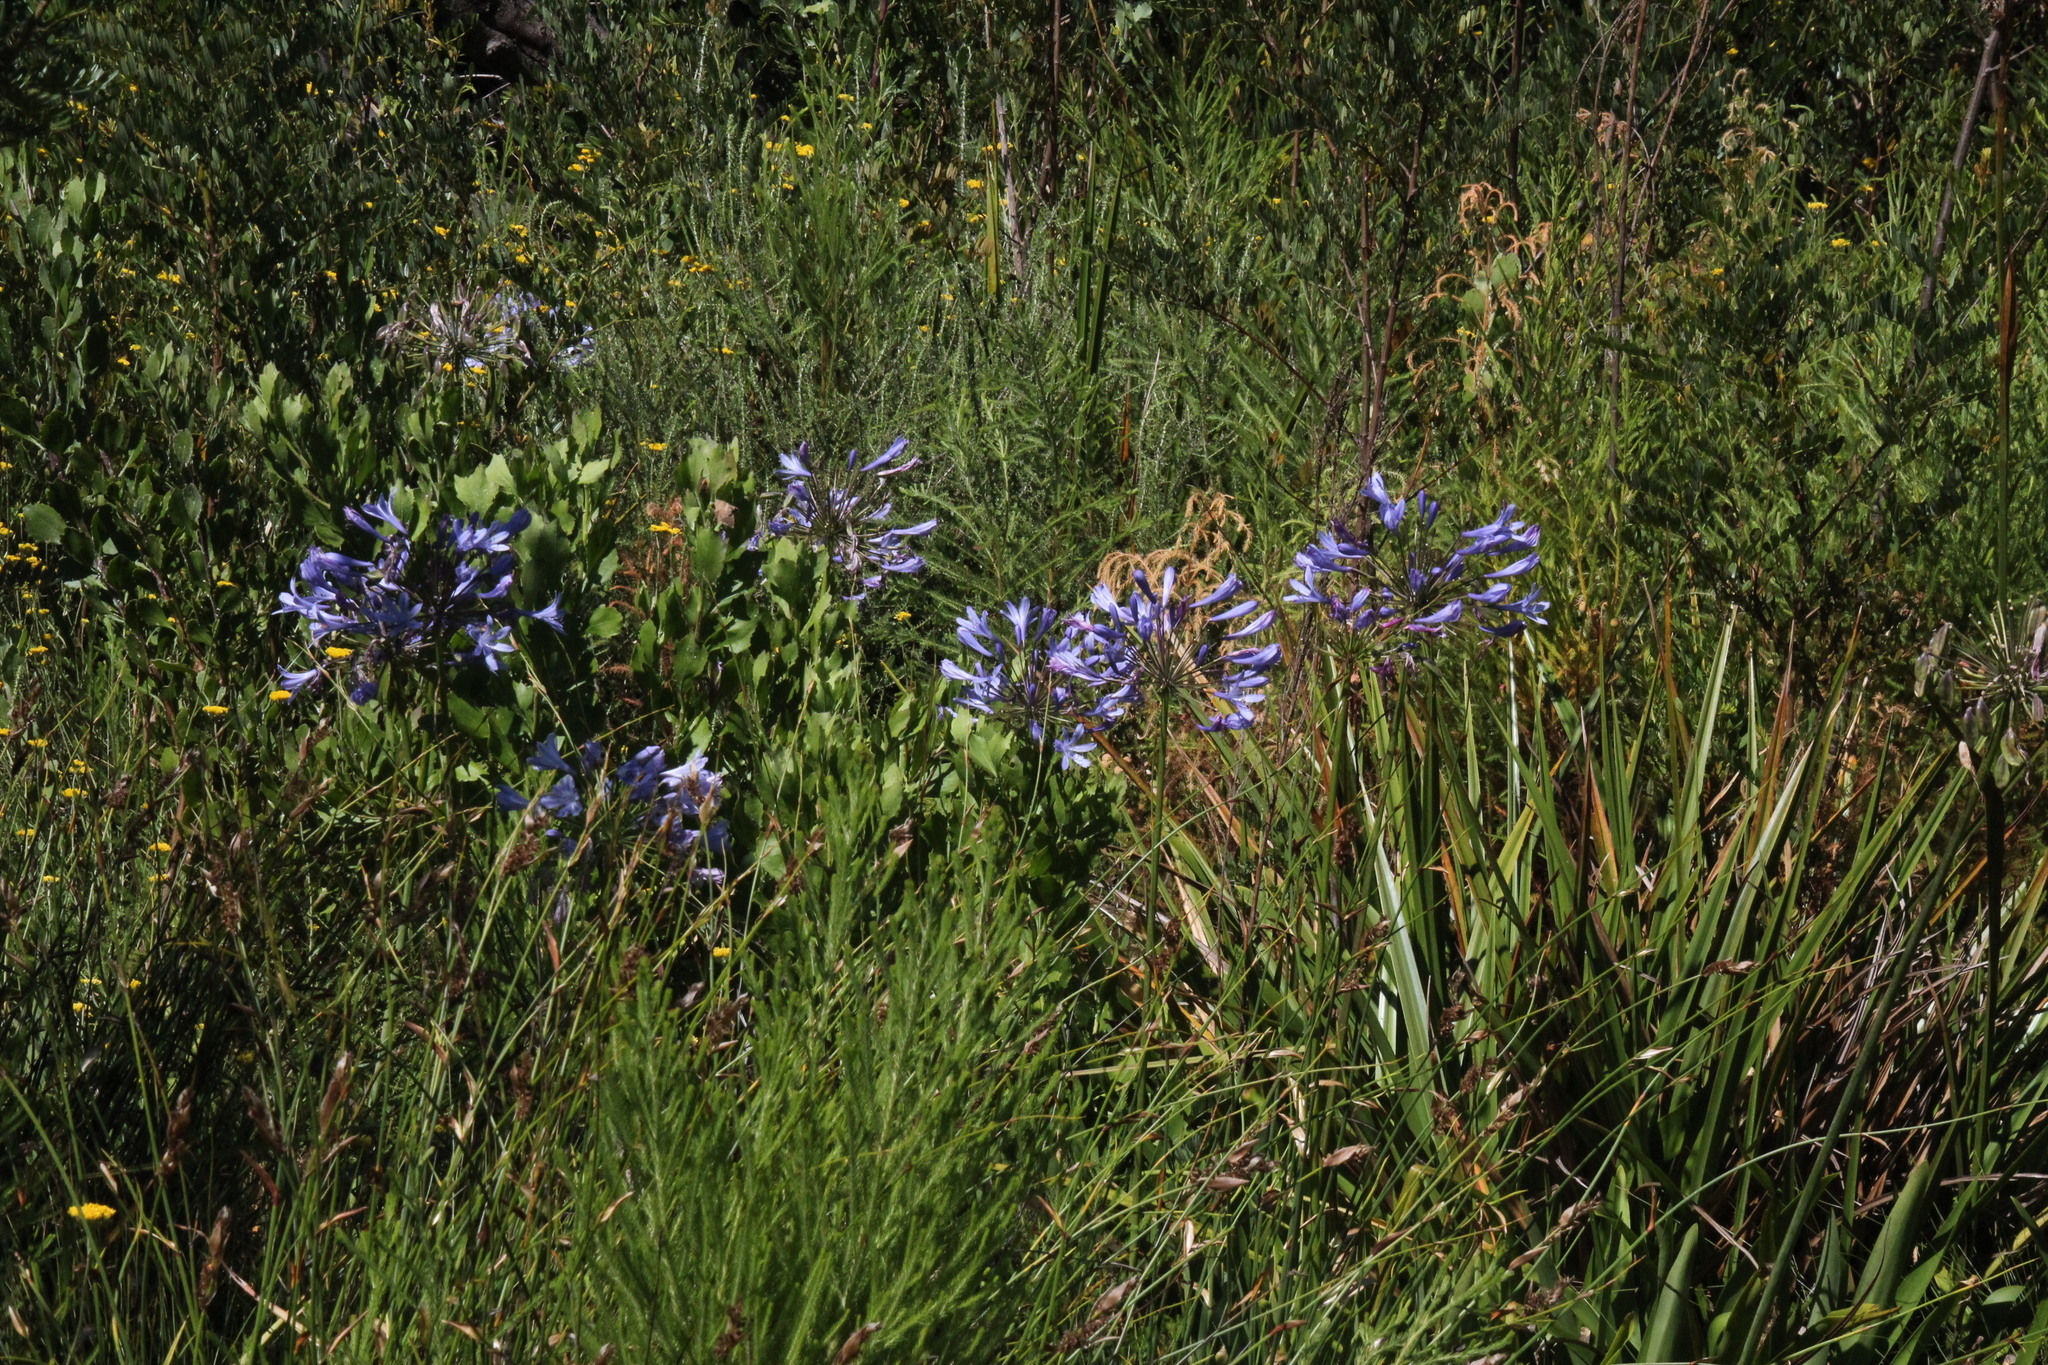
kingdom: Plantae
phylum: Tracheophyta
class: Liliopsida
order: Asparagales
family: Amaryllidaceae
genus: Agapanthus
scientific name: Agapanthus praecox
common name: African-lily
